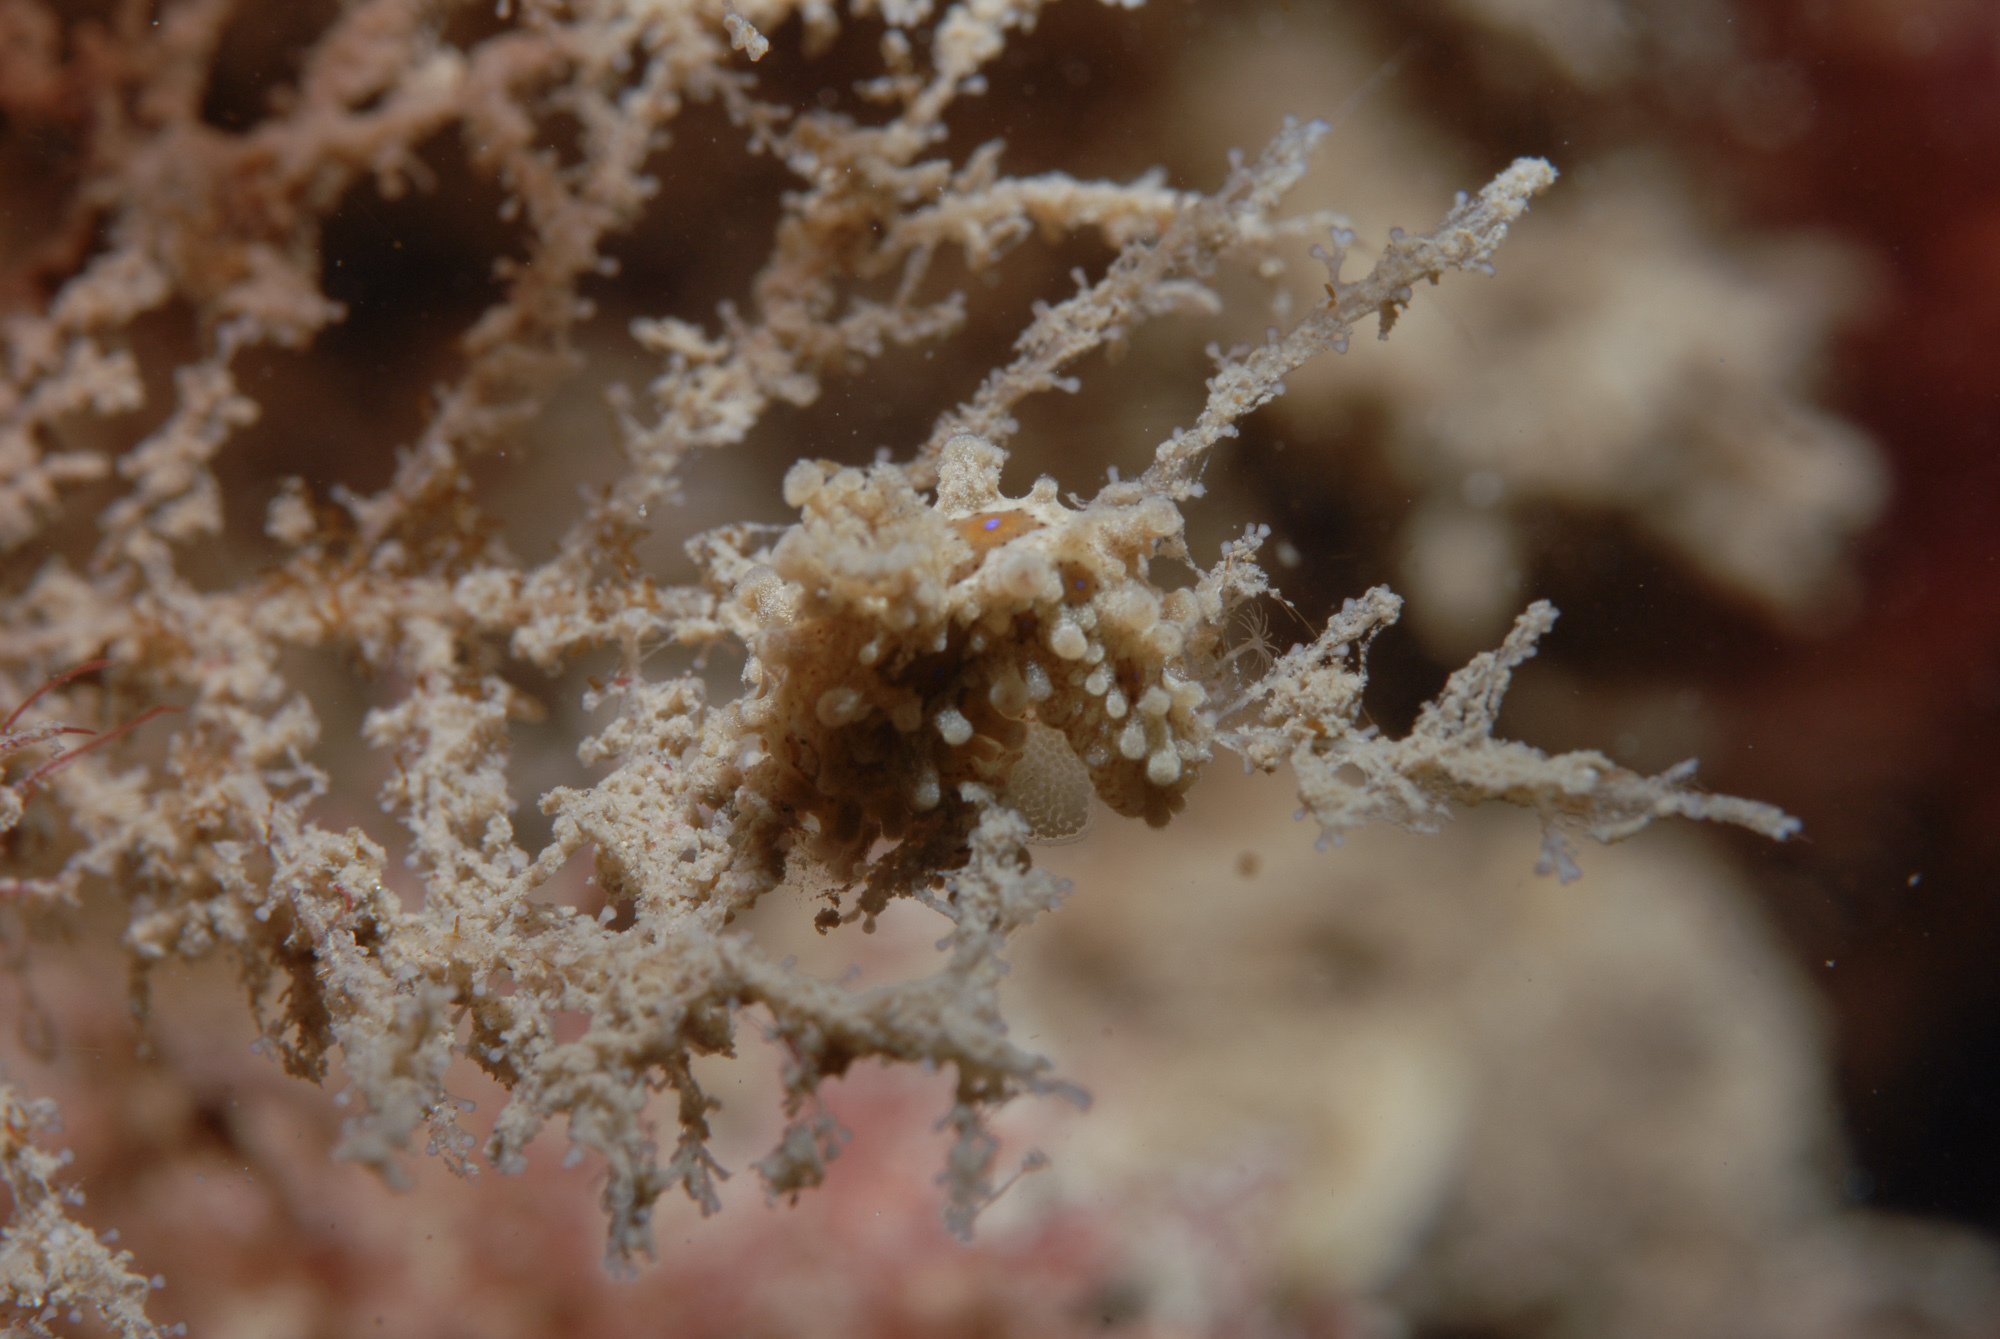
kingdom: Animalia
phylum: Mollusca
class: Gastropoda
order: Nudibranchia
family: Aegiridae
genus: Aegires
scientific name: Aegires punctilucens
